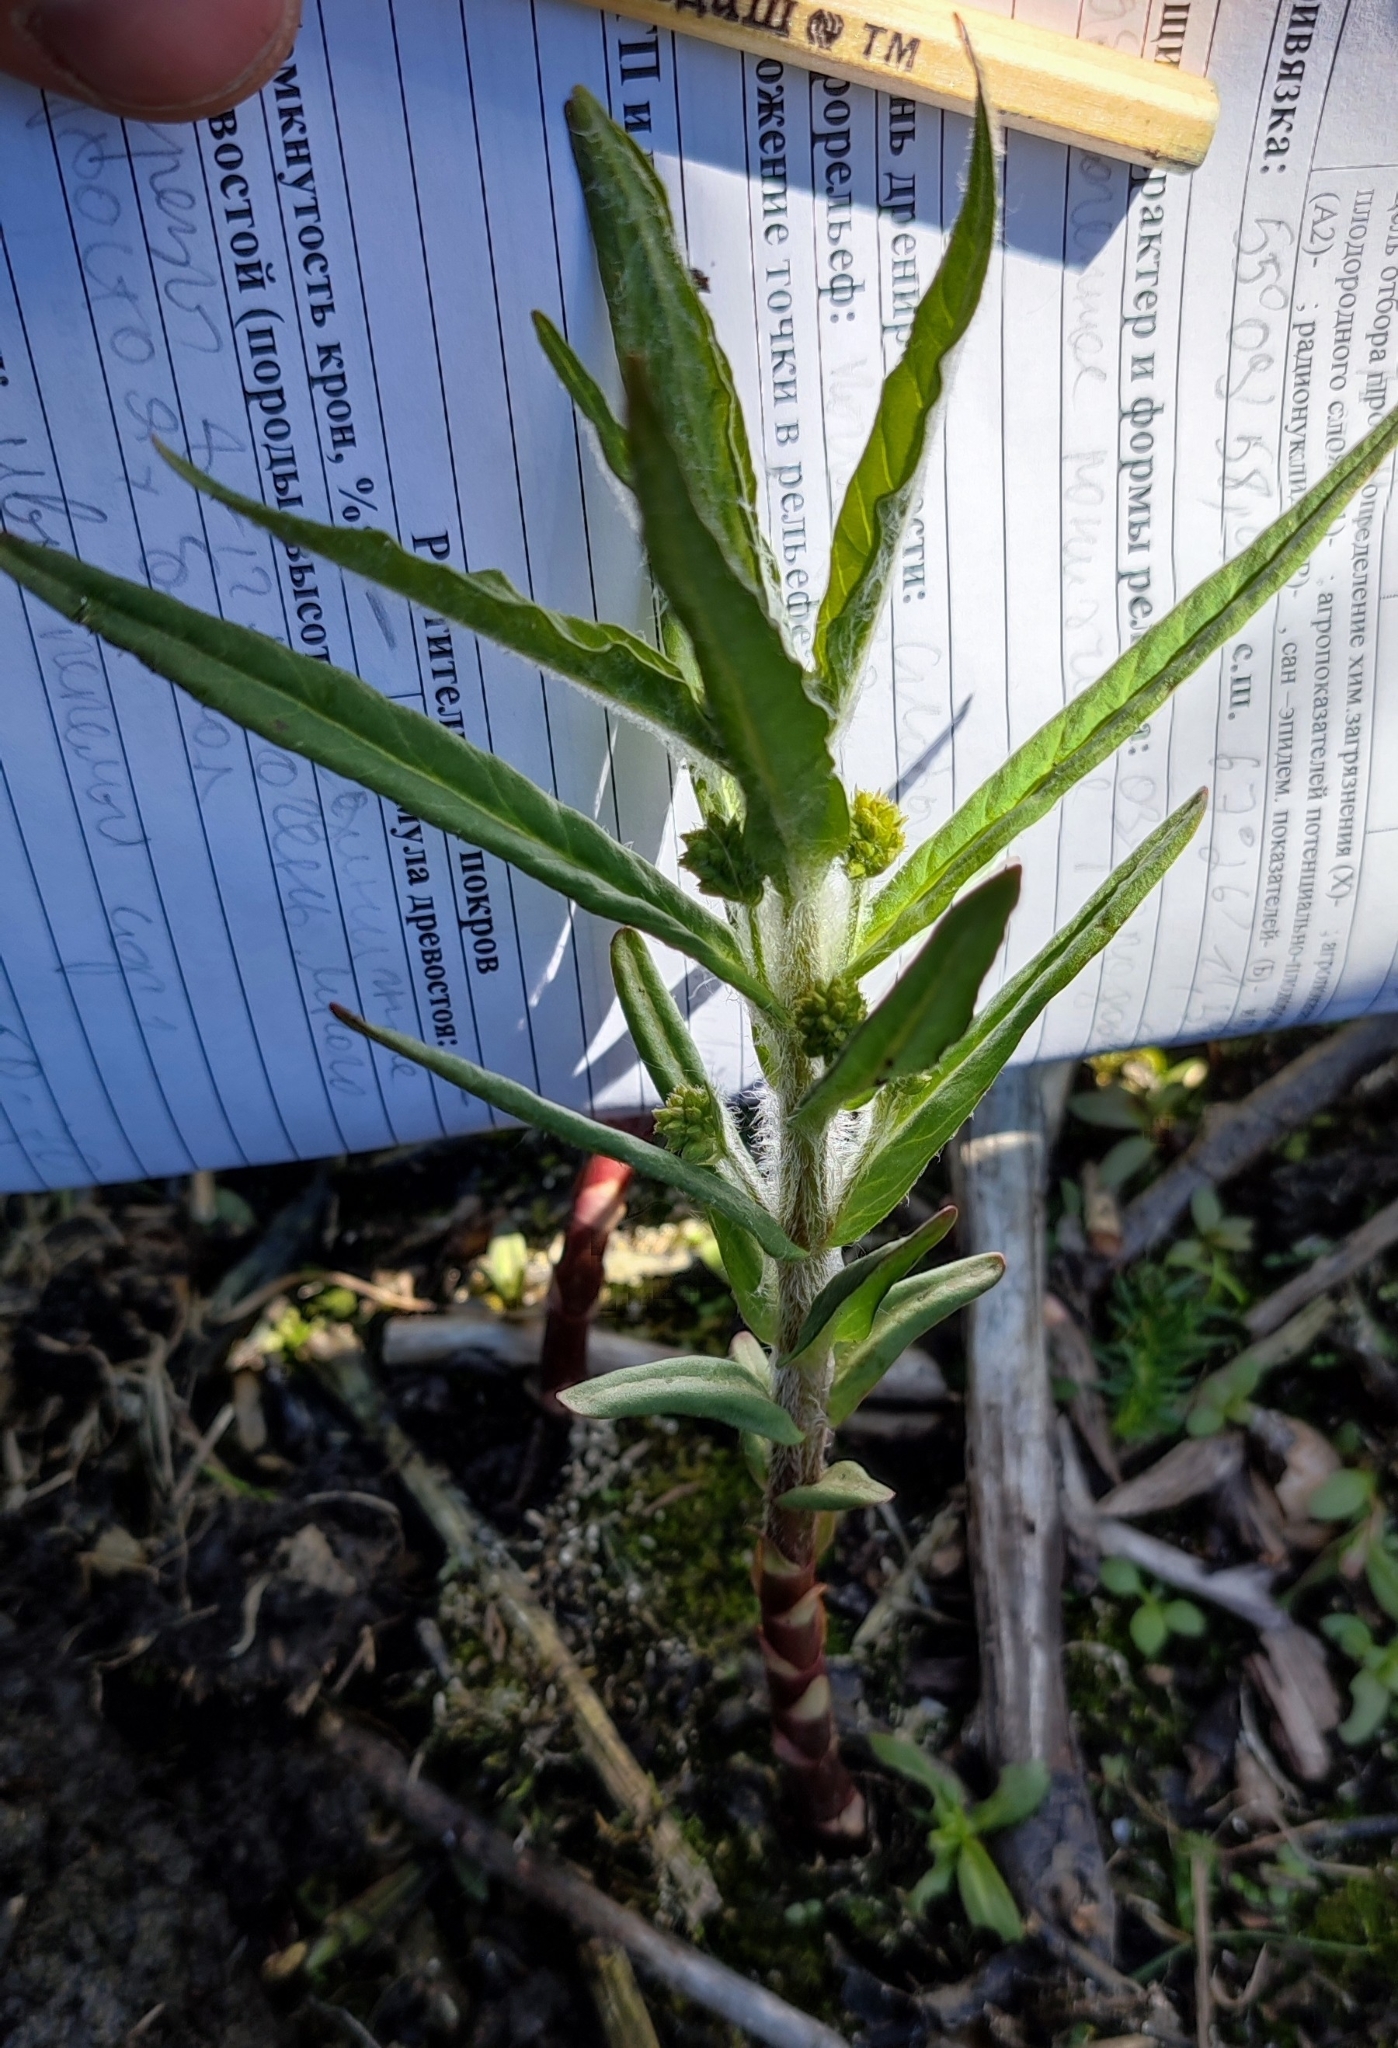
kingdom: Plantae
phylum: Tracheophyta
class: Magnoliopsida
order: Ericales
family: Primulaceae
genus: Lysimachia
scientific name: Lysimachia thyrsiflora
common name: Tufted loosestrife
